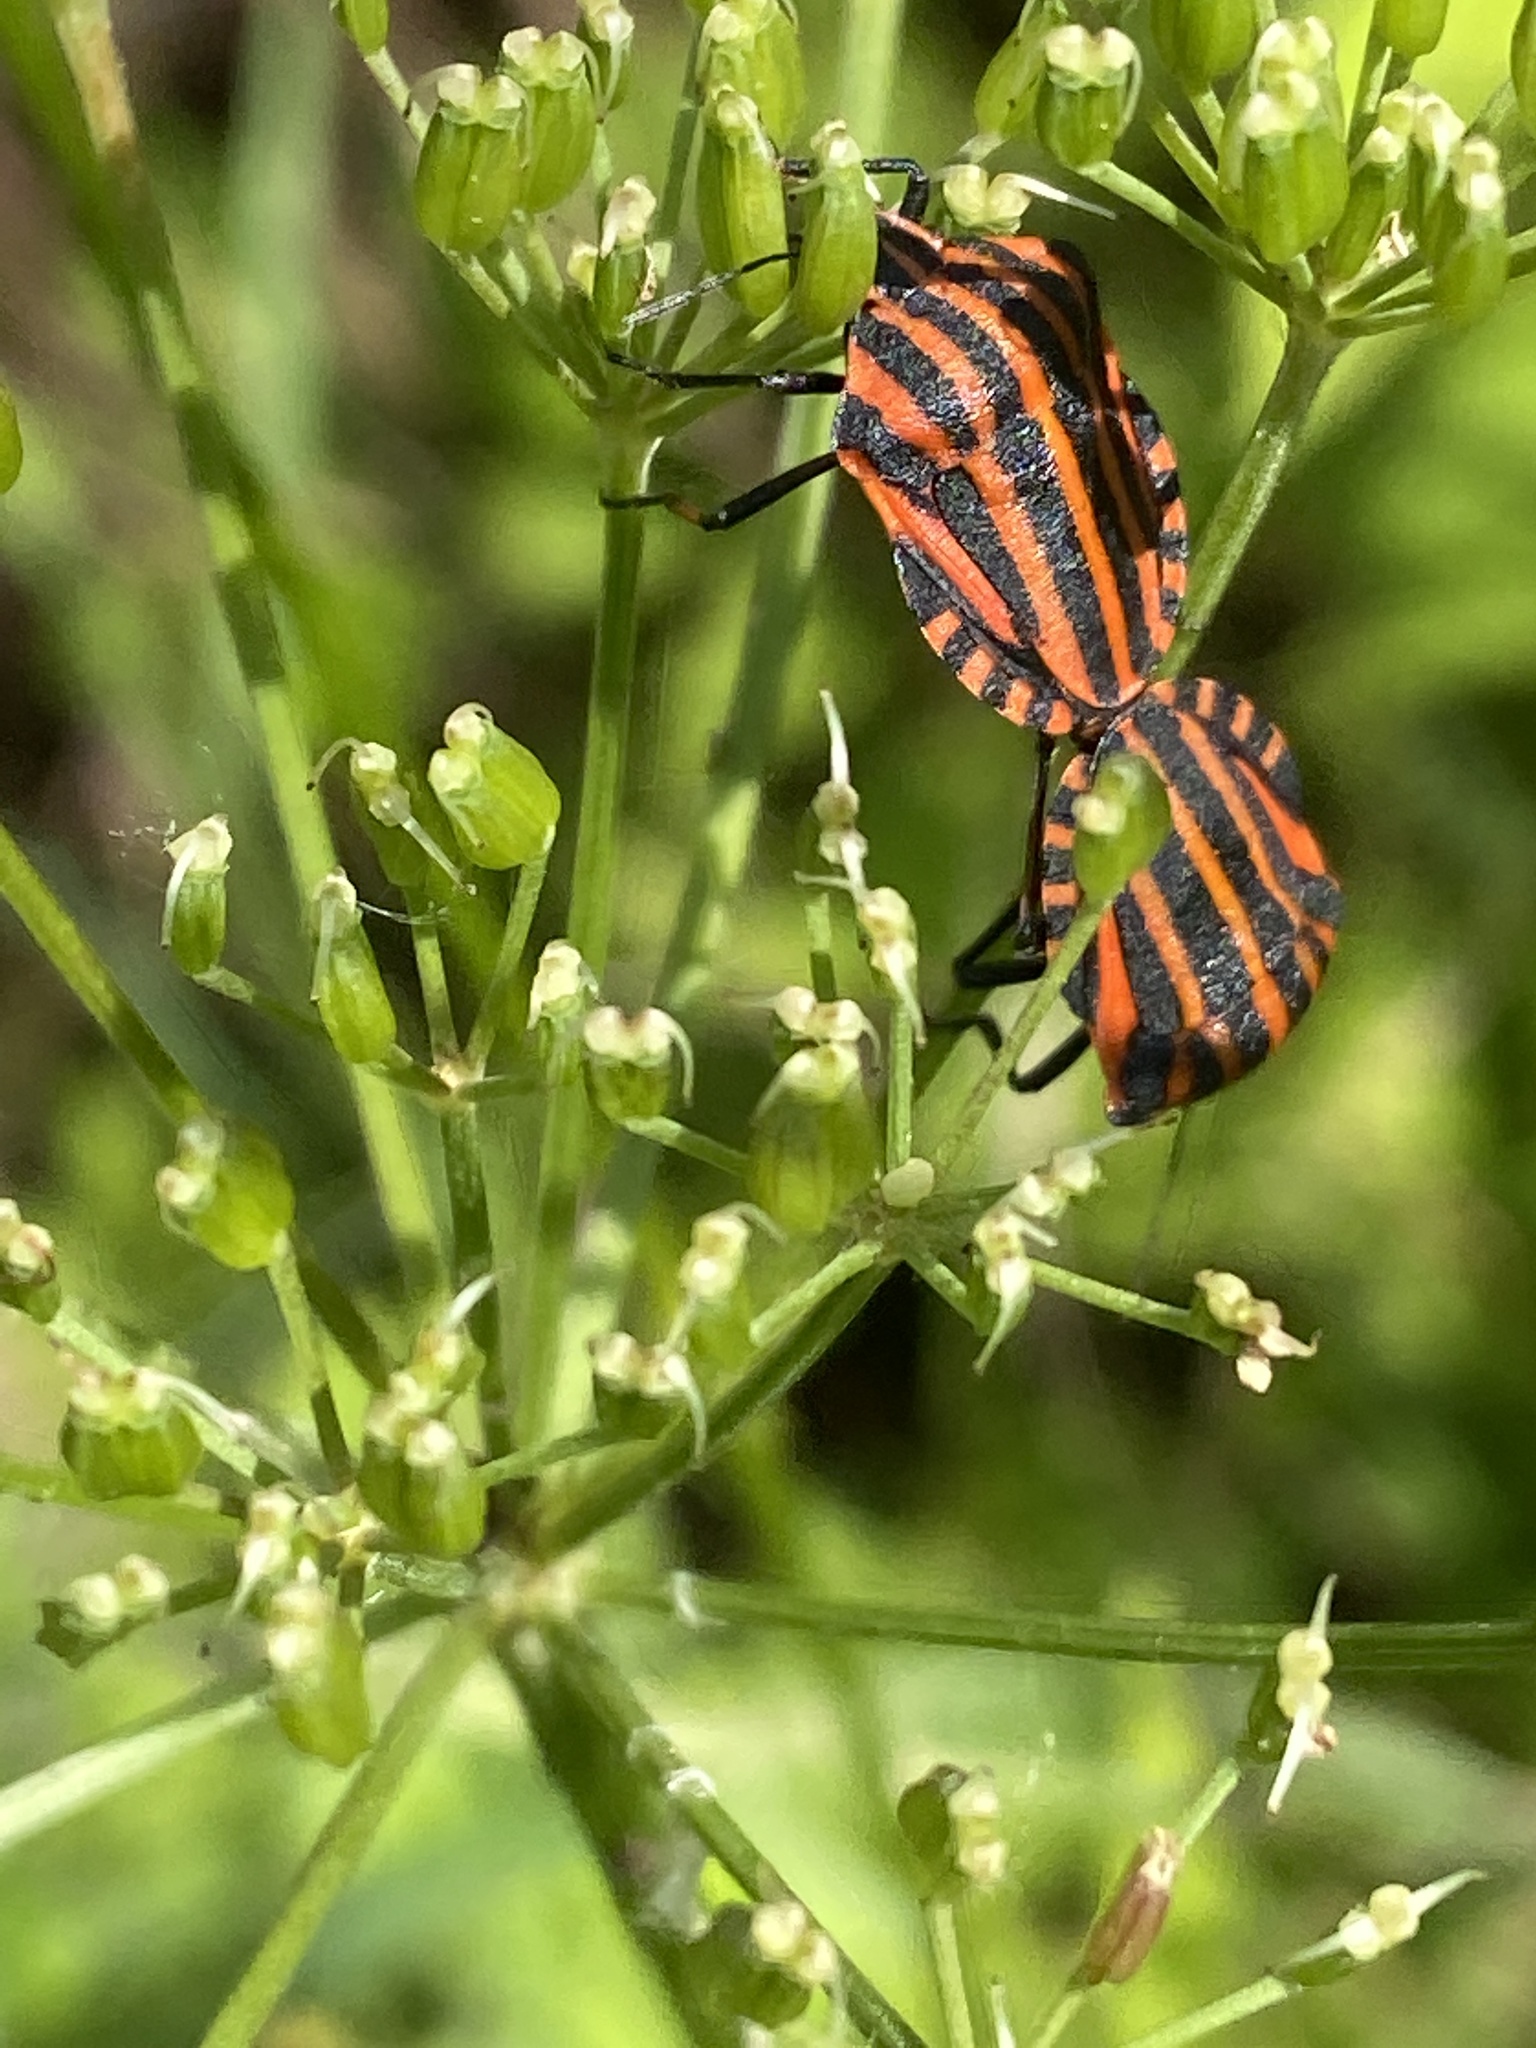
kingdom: Animalia
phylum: Arthropoda
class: Insecta
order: Hemiptera
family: Pentatomidae
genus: Graphosoma
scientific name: Graphosoma italicum
